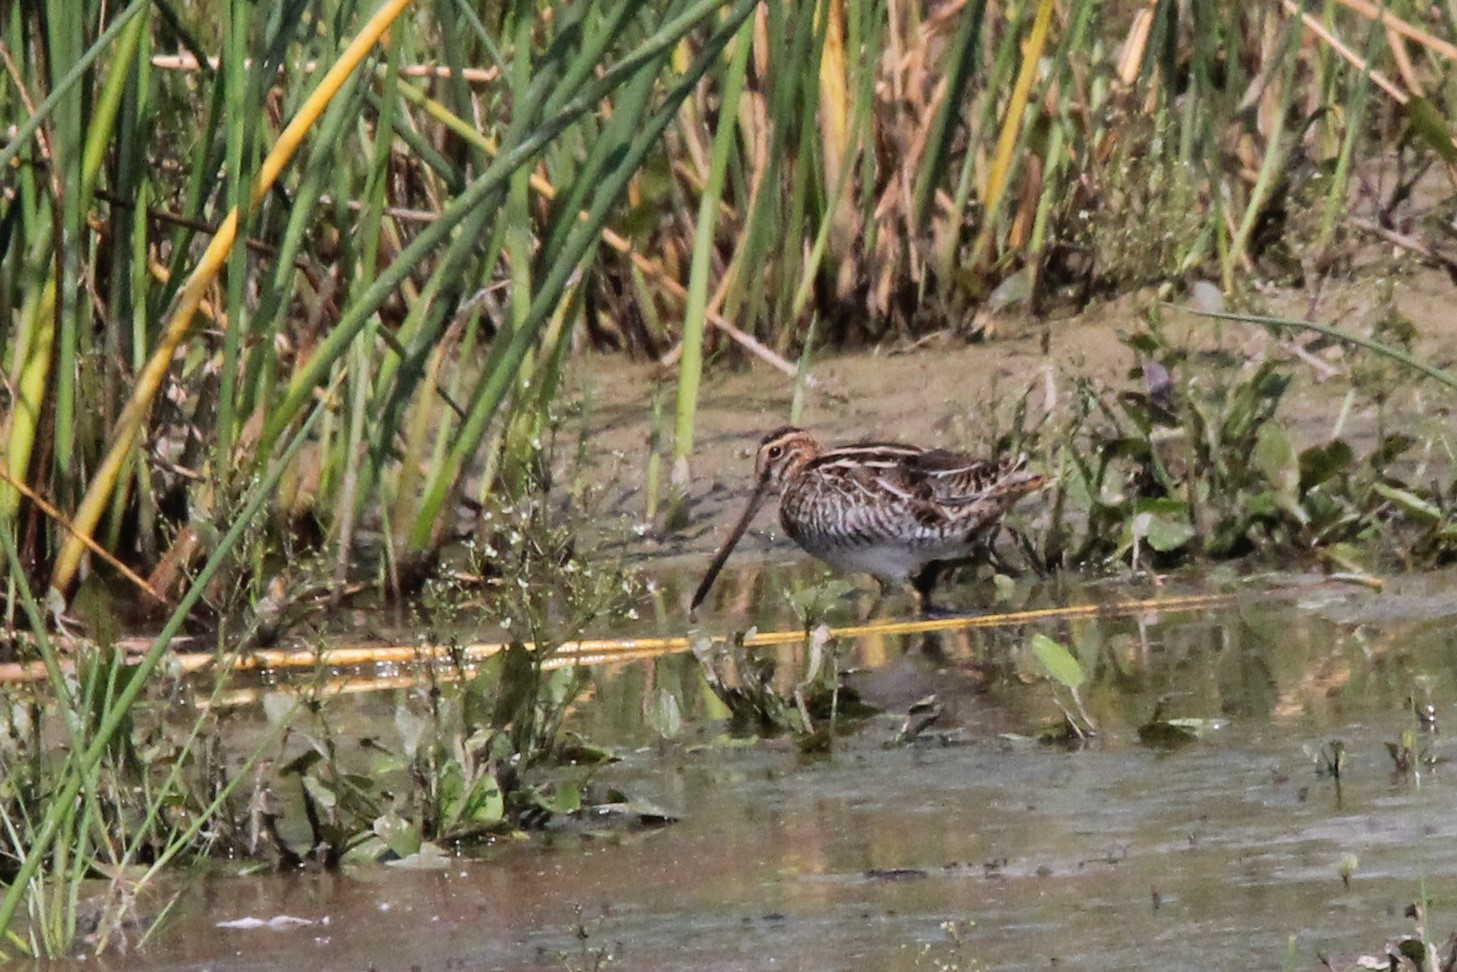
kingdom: Animalia
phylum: Chordata
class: Aves
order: Charadriiformes
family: Scolopacidae
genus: Gallinago
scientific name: Gallinago delicata
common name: Wilson's snipe
